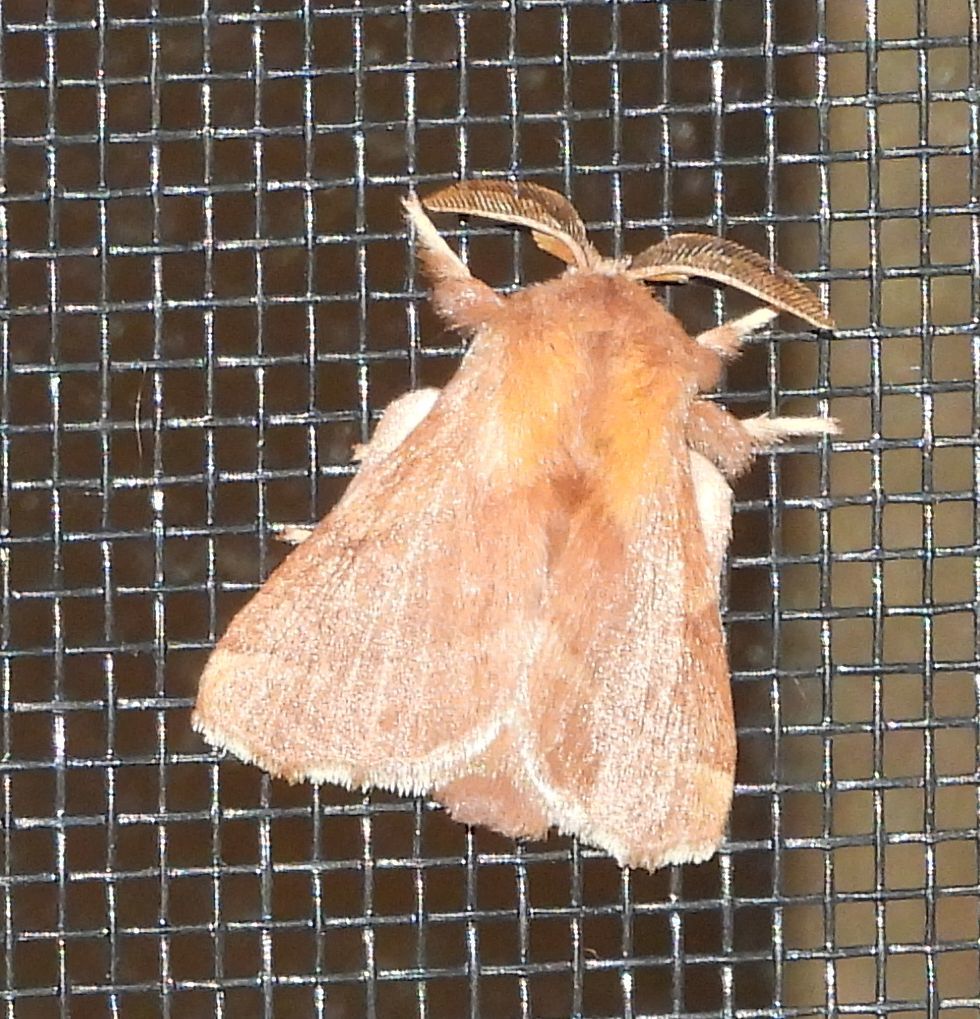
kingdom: Animalia
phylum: Arthropoda
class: Insecta
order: Lepidoptera
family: Lasiocampidae
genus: Malacosoma
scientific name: Malacosoma disstria
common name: Forest tent caterpillar
